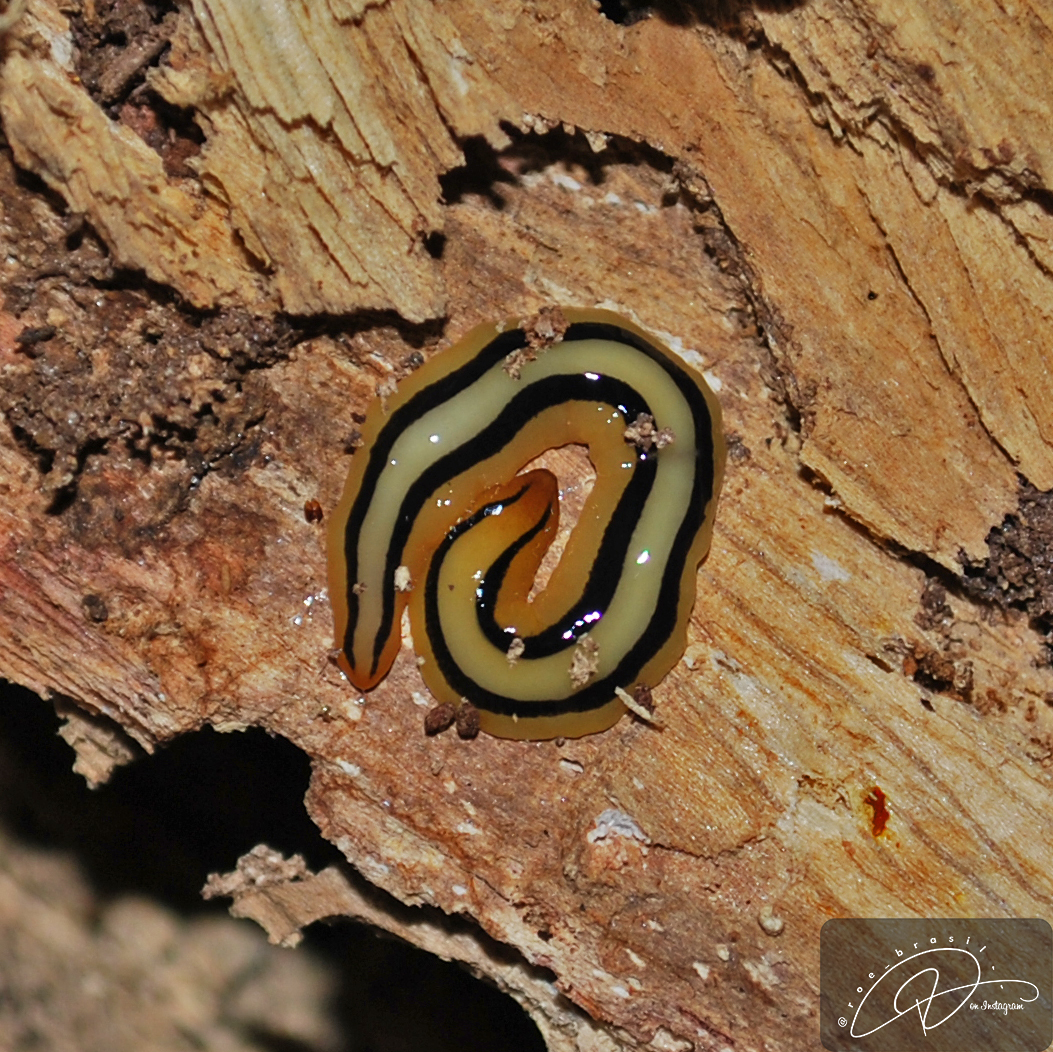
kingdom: Animalia
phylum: Platyhelminthes
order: Tricladida
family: Geoplanidae
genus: Issoca
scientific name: Issoca potyra
